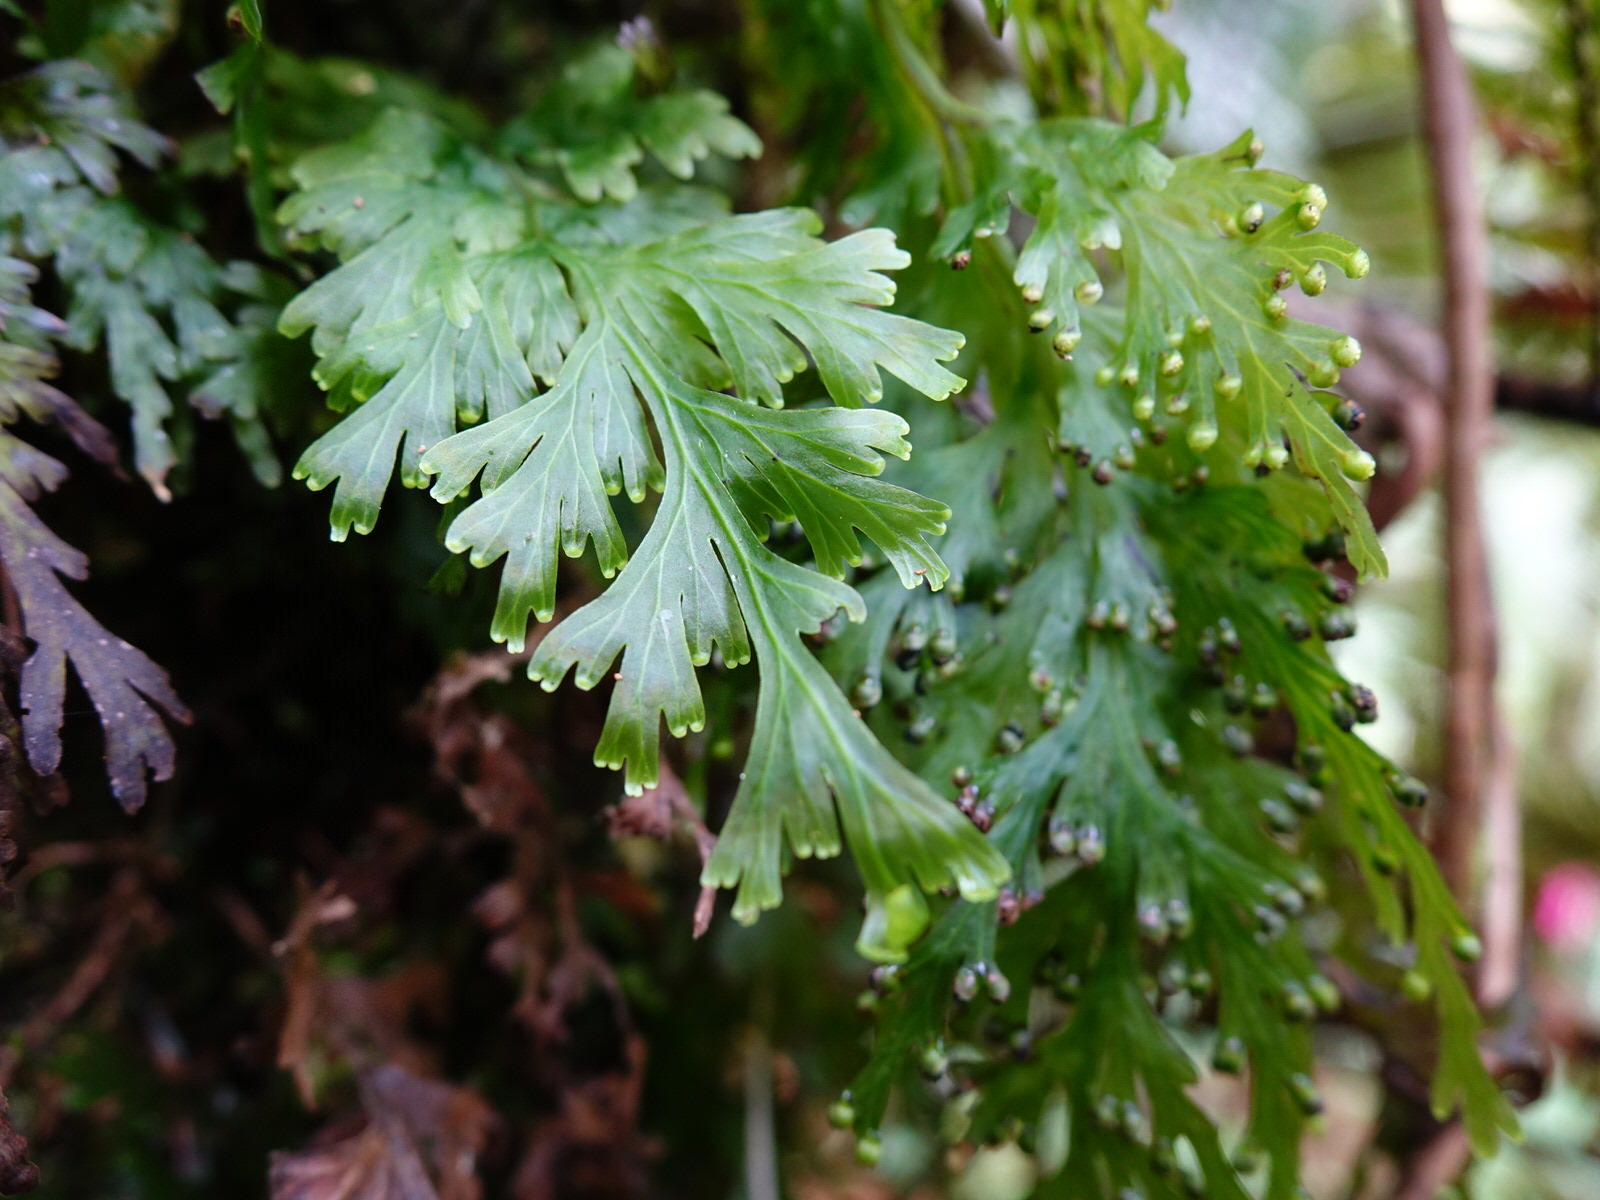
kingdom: Plantae
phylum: Tracheophyta
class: Polypodiopsida
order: Hymenophyllales
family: Hymenophyllaceae
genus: Hymenophyllum
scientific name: Hymenophyllum dilatatum
